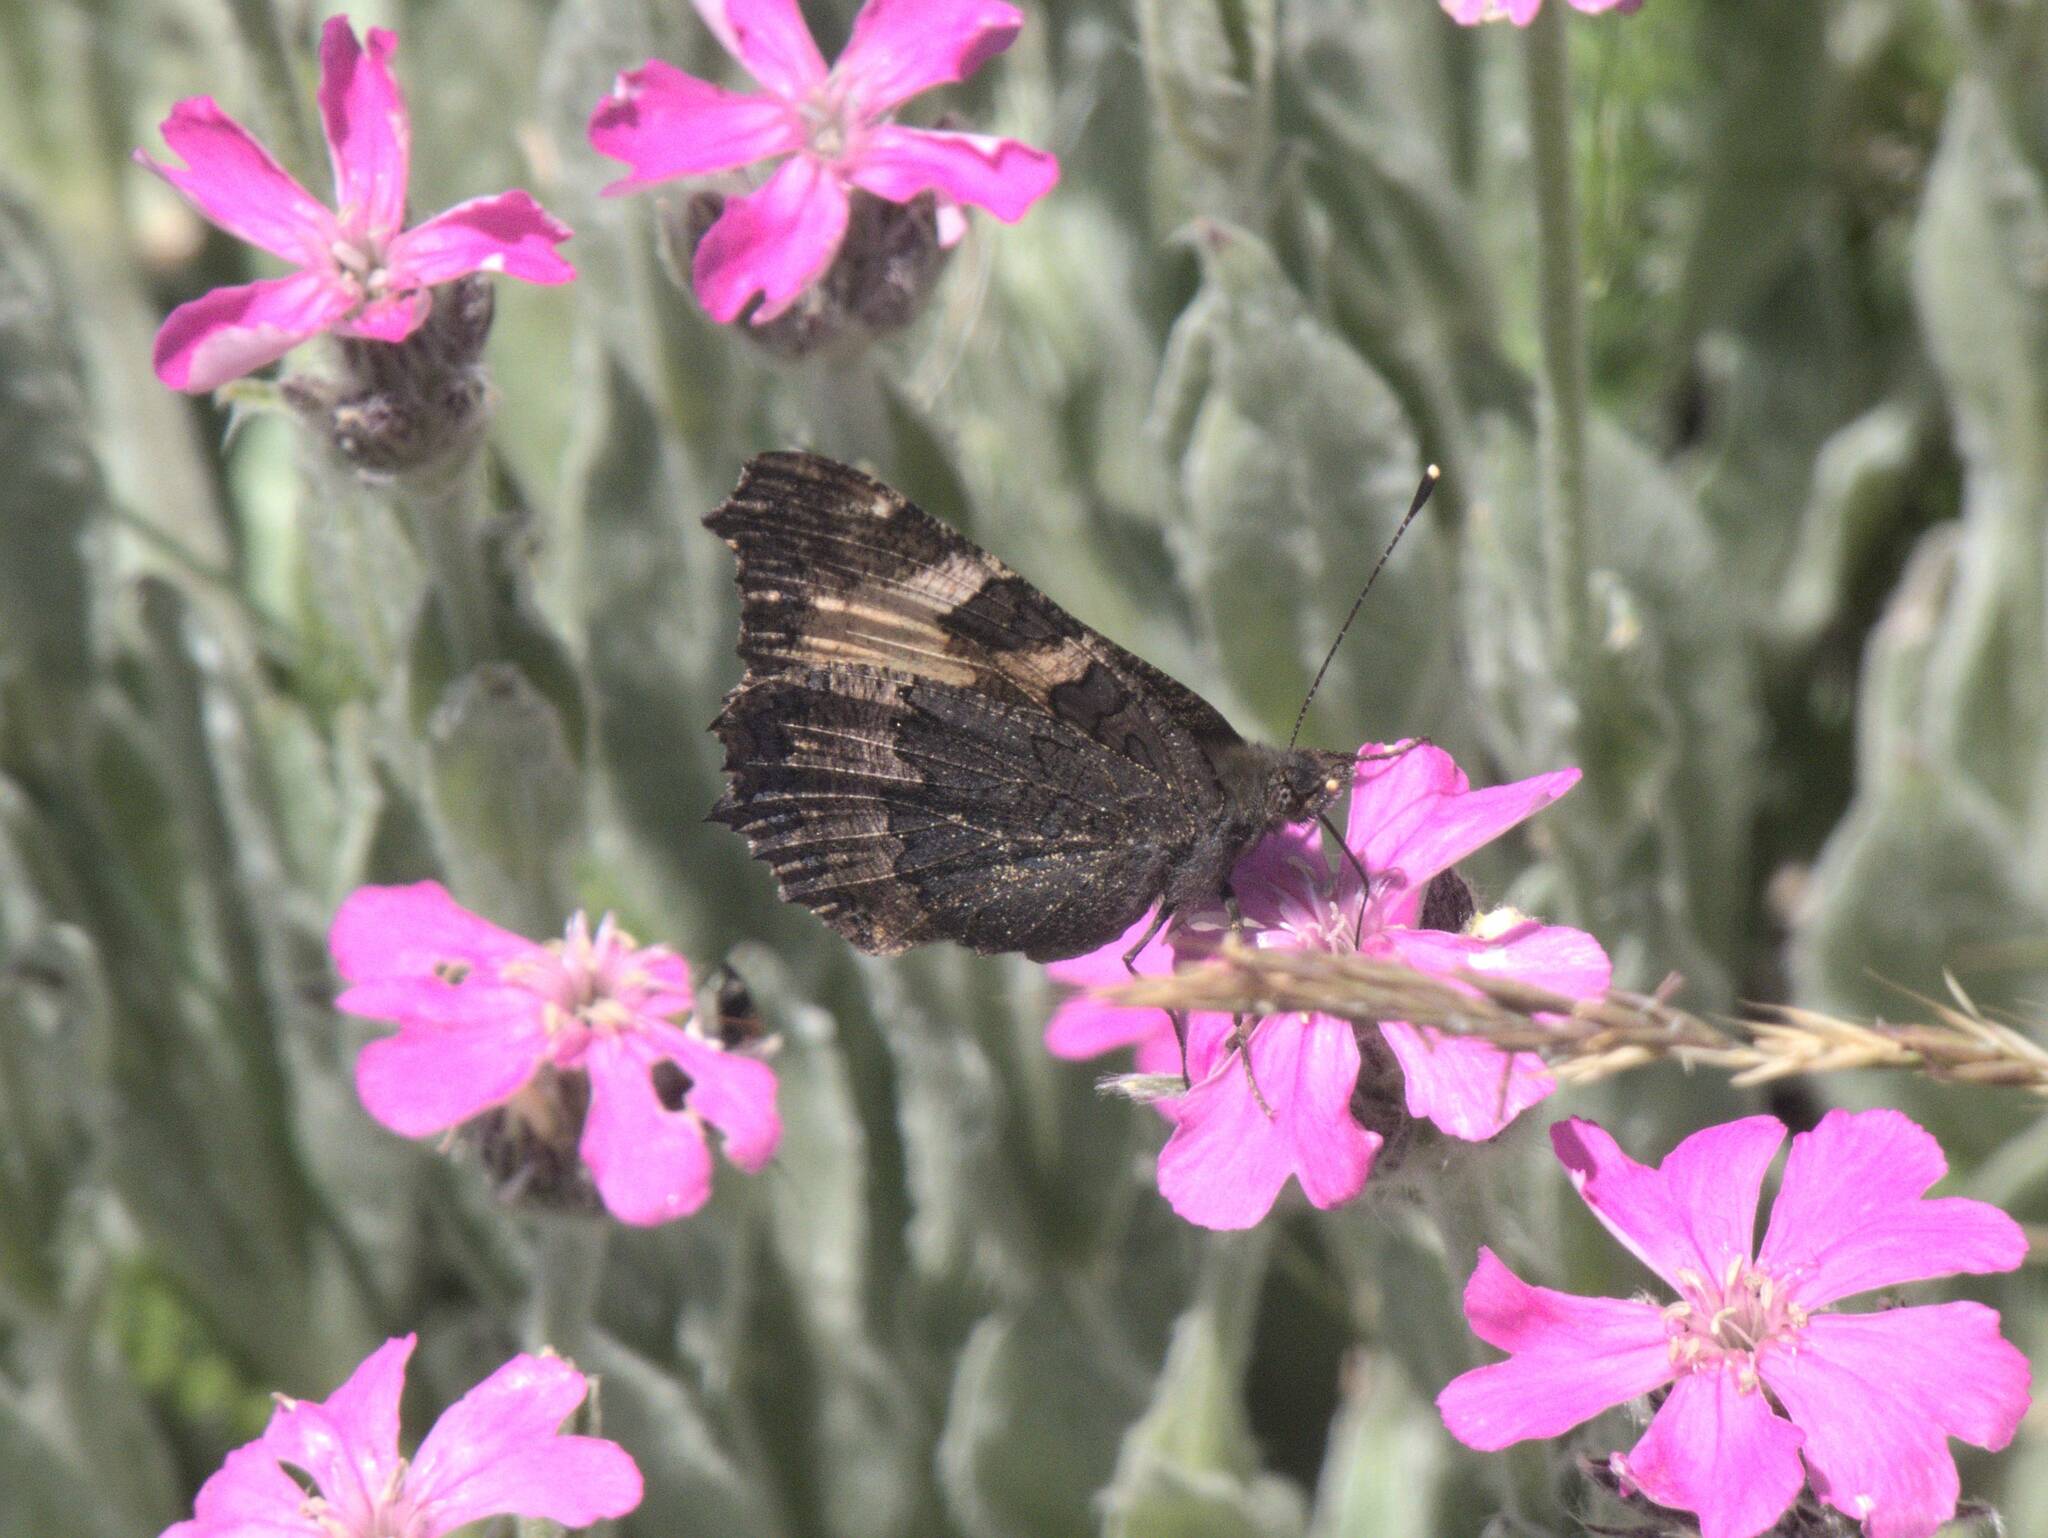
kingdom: Animalia
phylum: Arthropoda
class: Insecta
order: Lepidoptera
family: Nymphalidae
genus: Aglais
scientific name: Aglais urticae
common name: Small tortoiseshell
